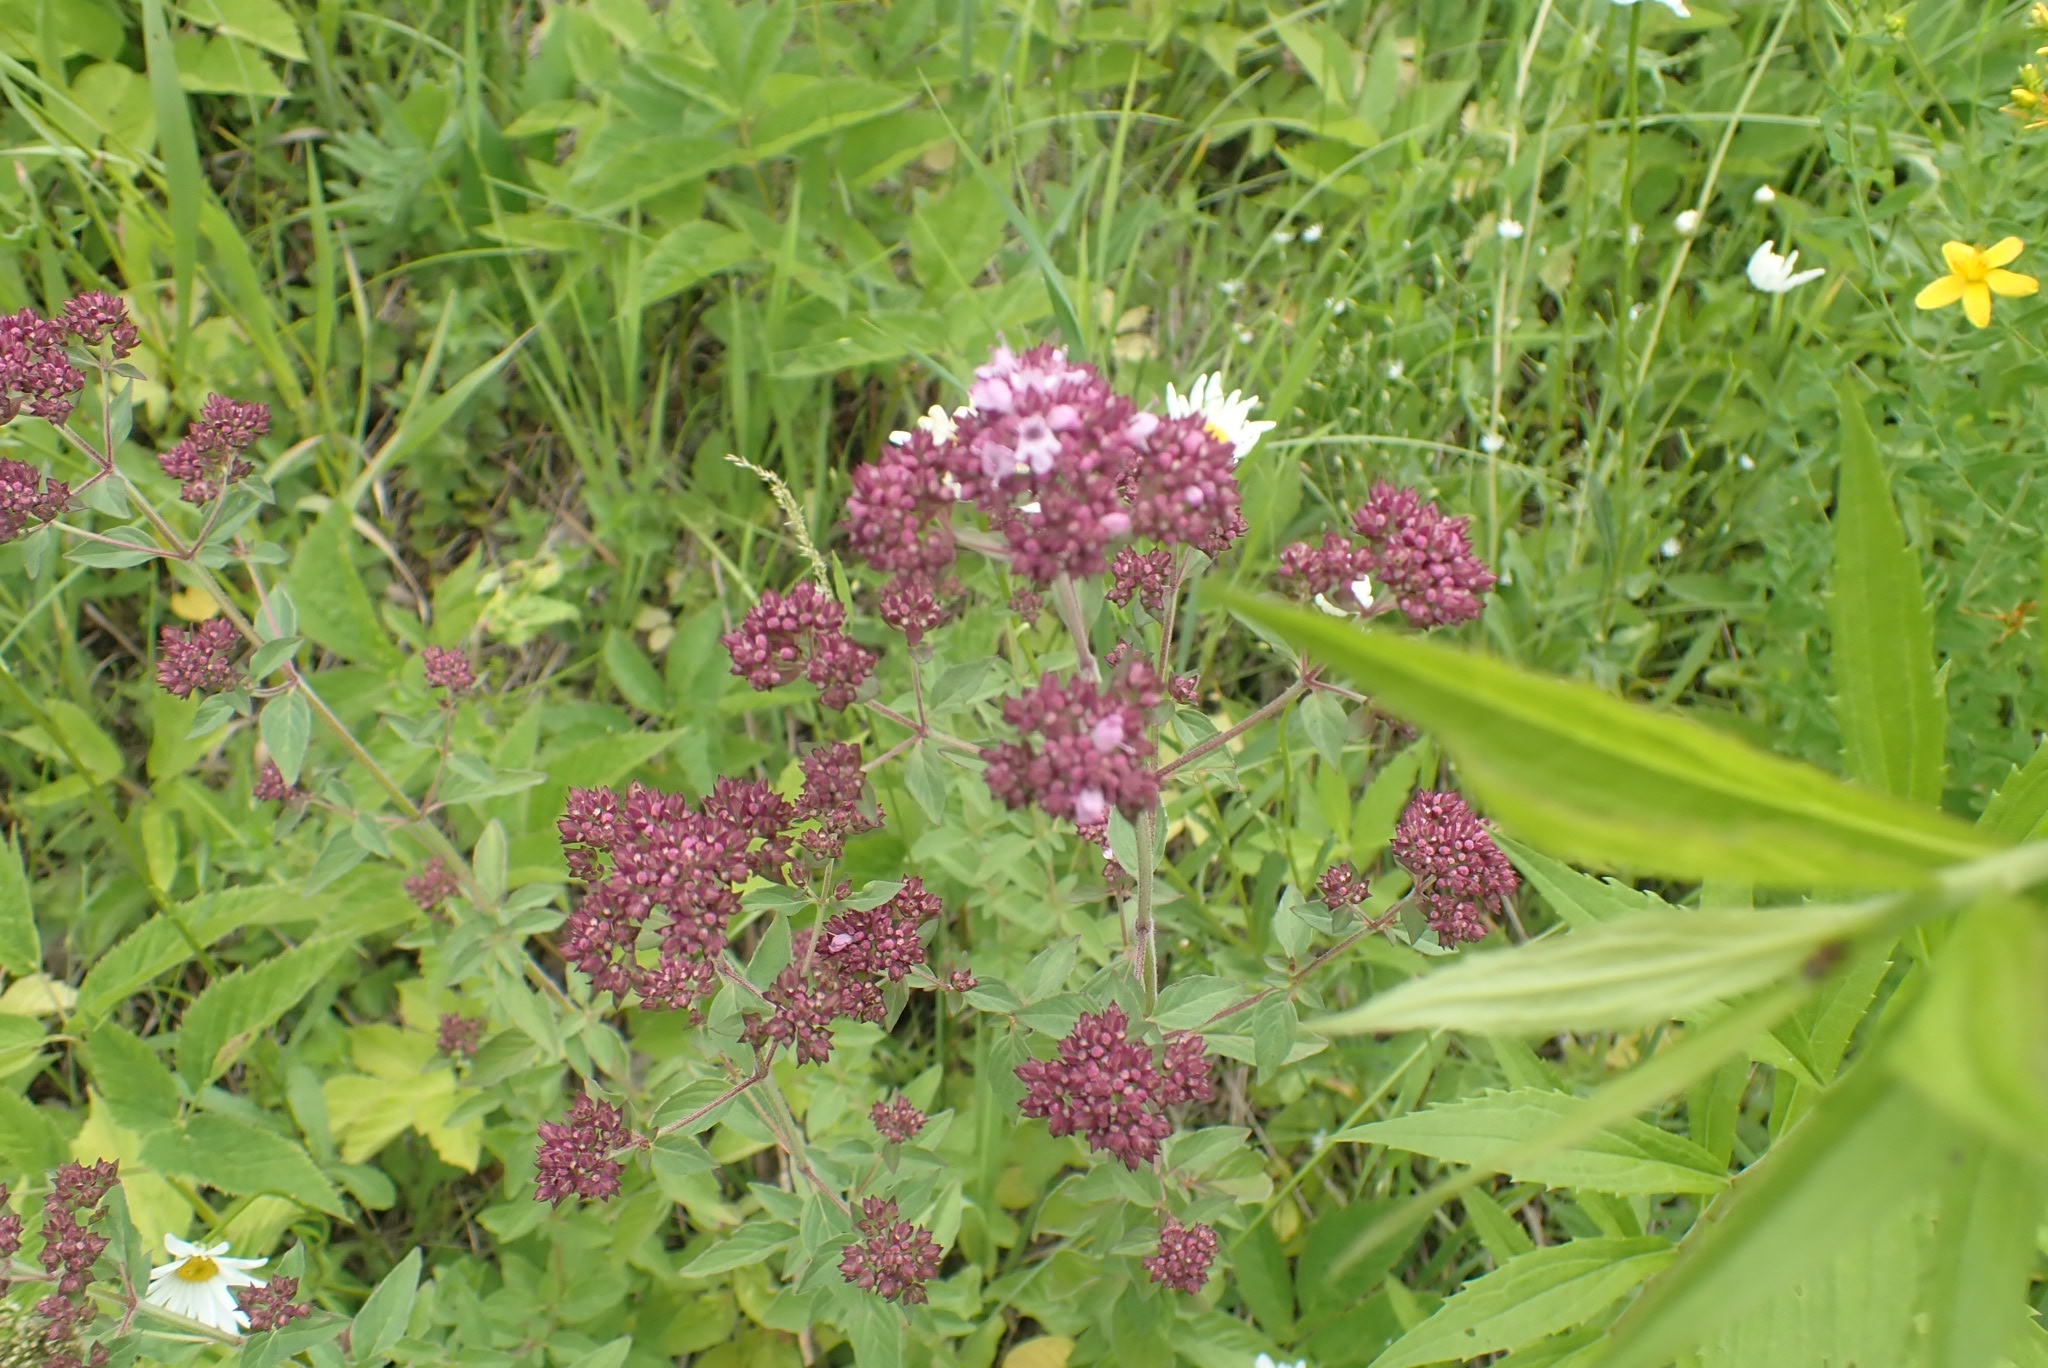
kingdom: Plantae
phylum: Tracheophyta
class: Magnoliopsida
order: Lamiales
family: Lamiaceae
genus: Origanum
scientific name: Origanum vulgare
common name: Wild marjoram
